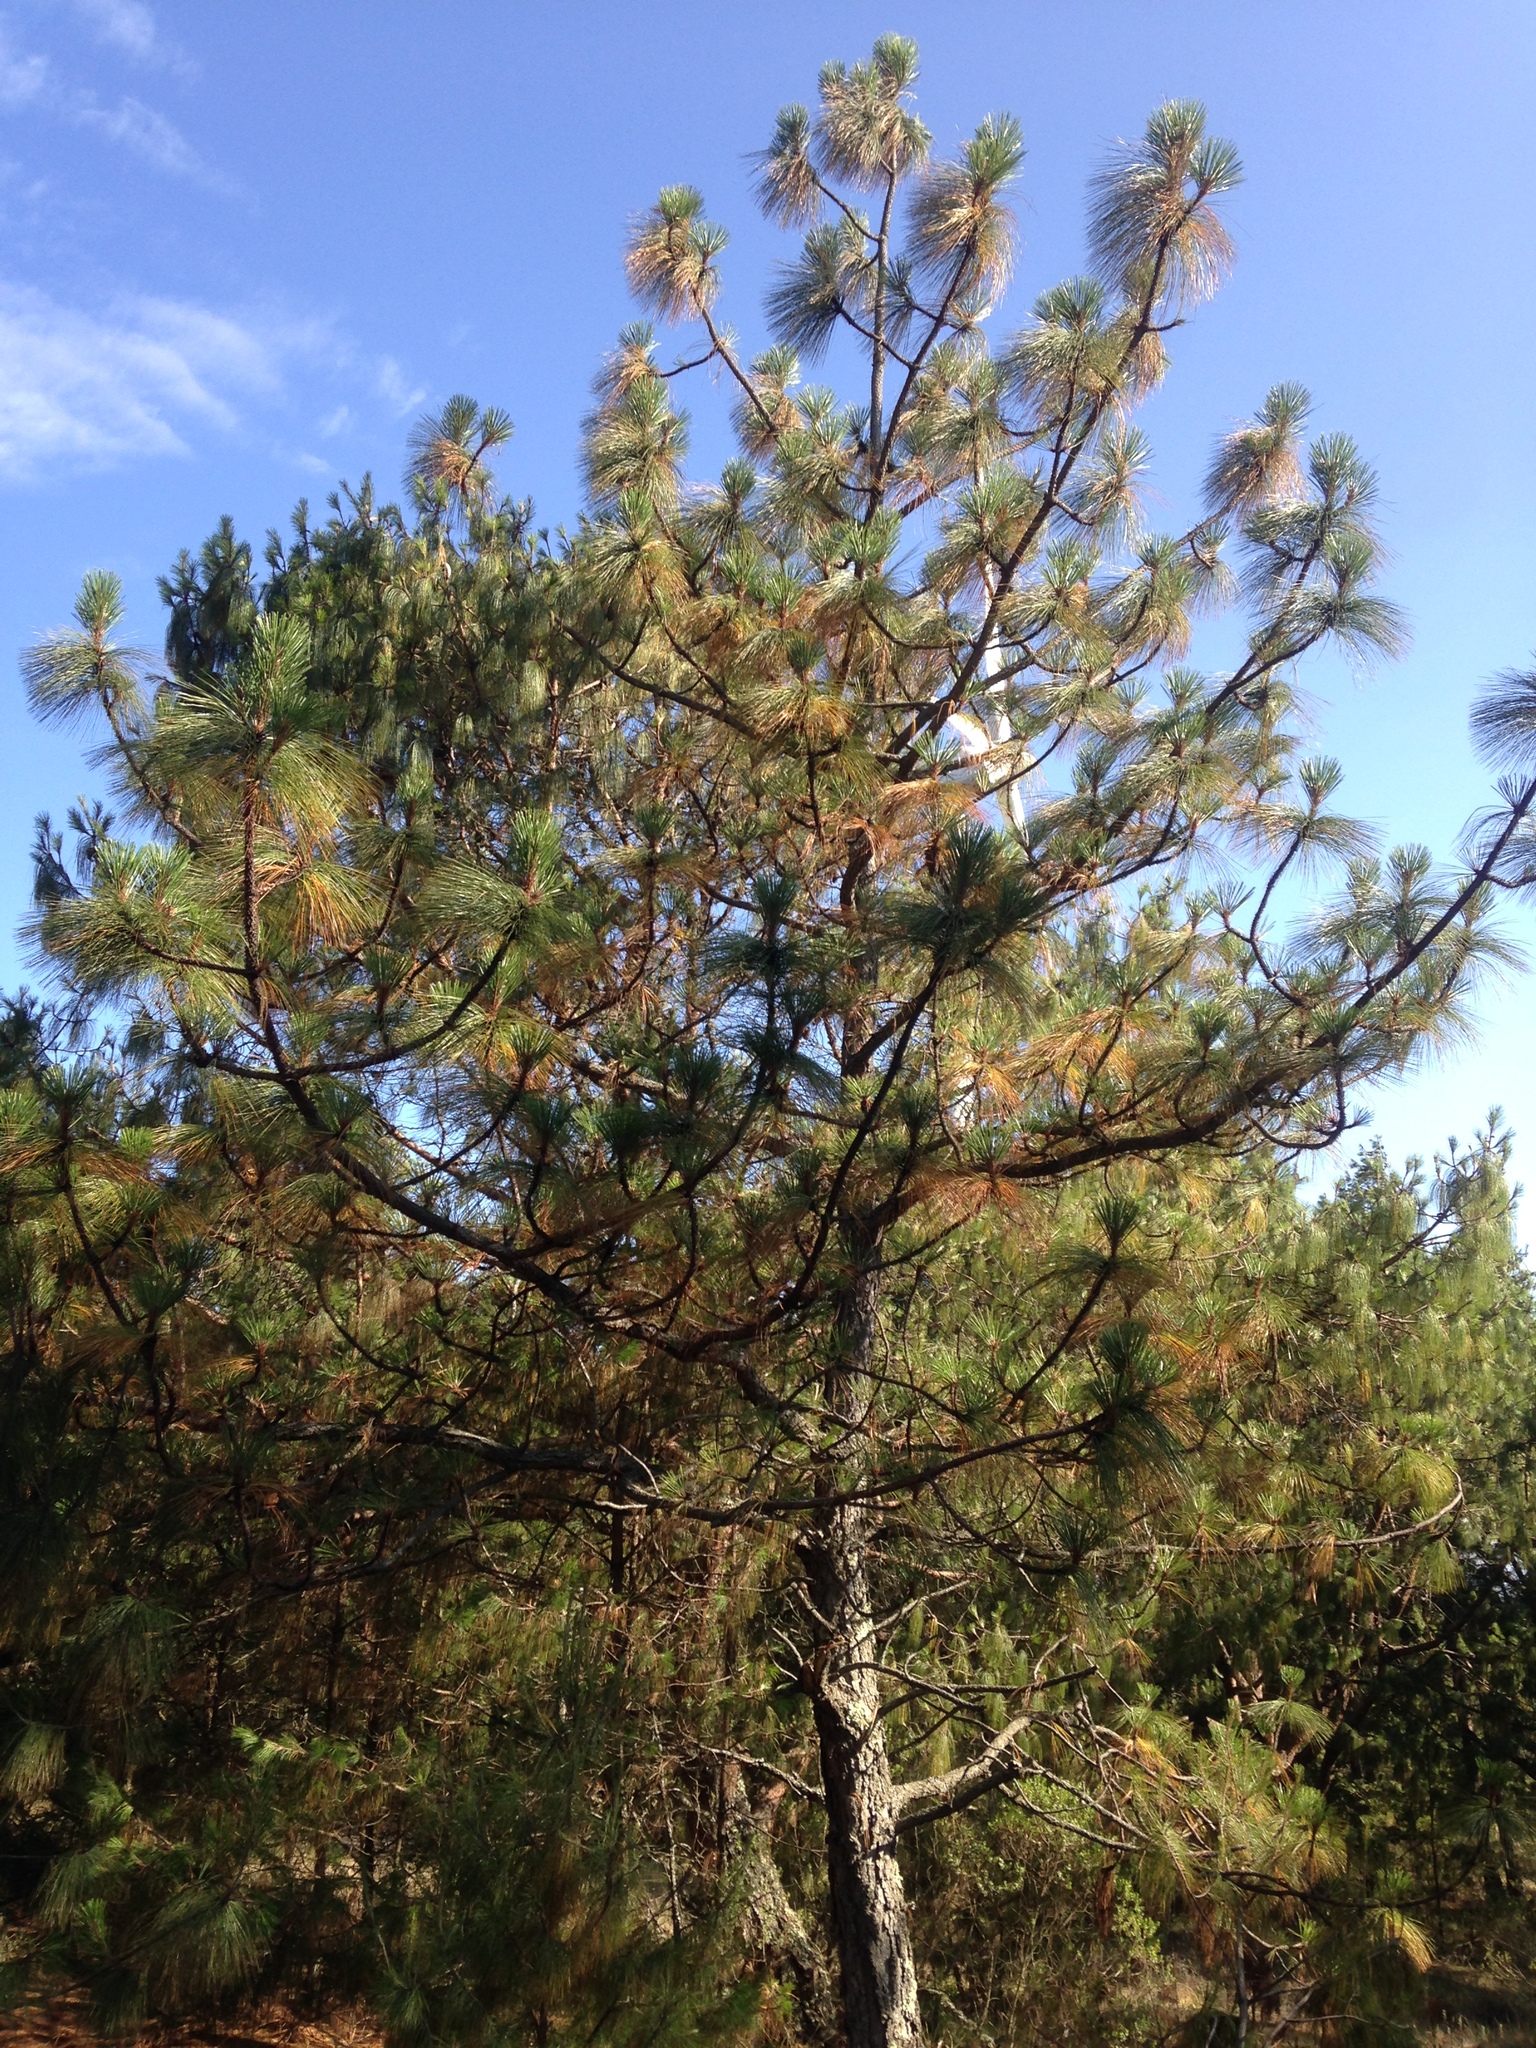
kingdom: Plantae
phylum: Tracheophyta
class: Pinopsida
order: Pinales
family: Pinaceae
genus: Pinus
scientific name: Pinus devoniana
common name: Michoacan pine
